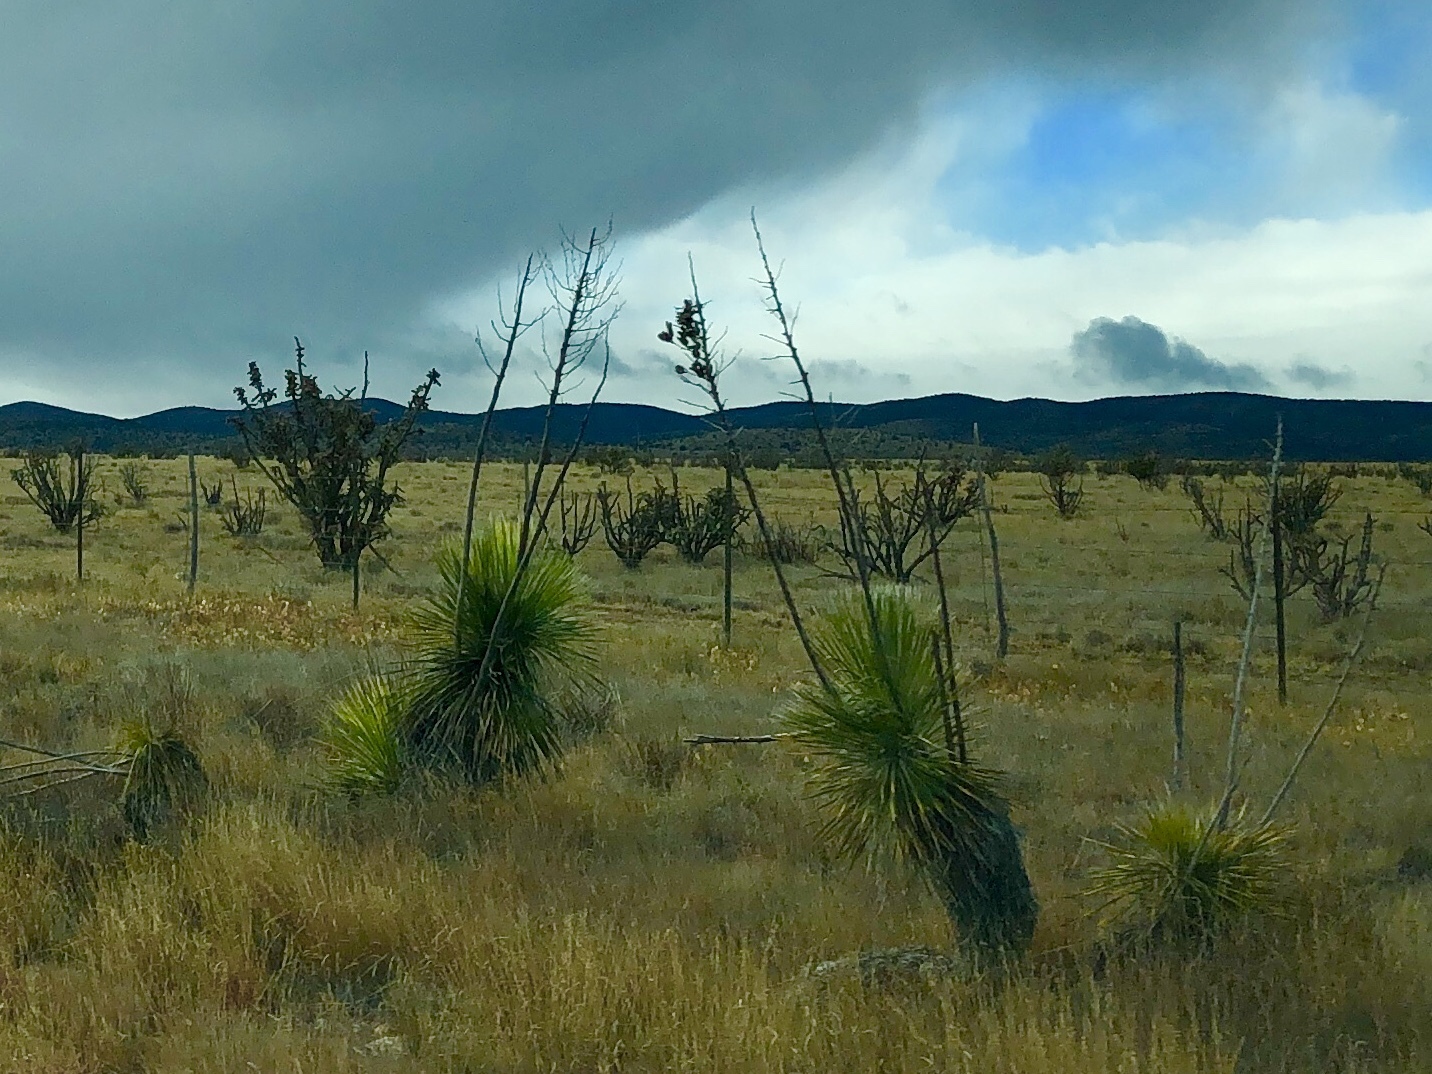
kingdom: Plantae
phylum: Tracheophyta
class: Liliopsida
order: Asparagales
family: Asparagaceae
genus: Yucca
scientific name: Yucca elata
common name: Palmella
